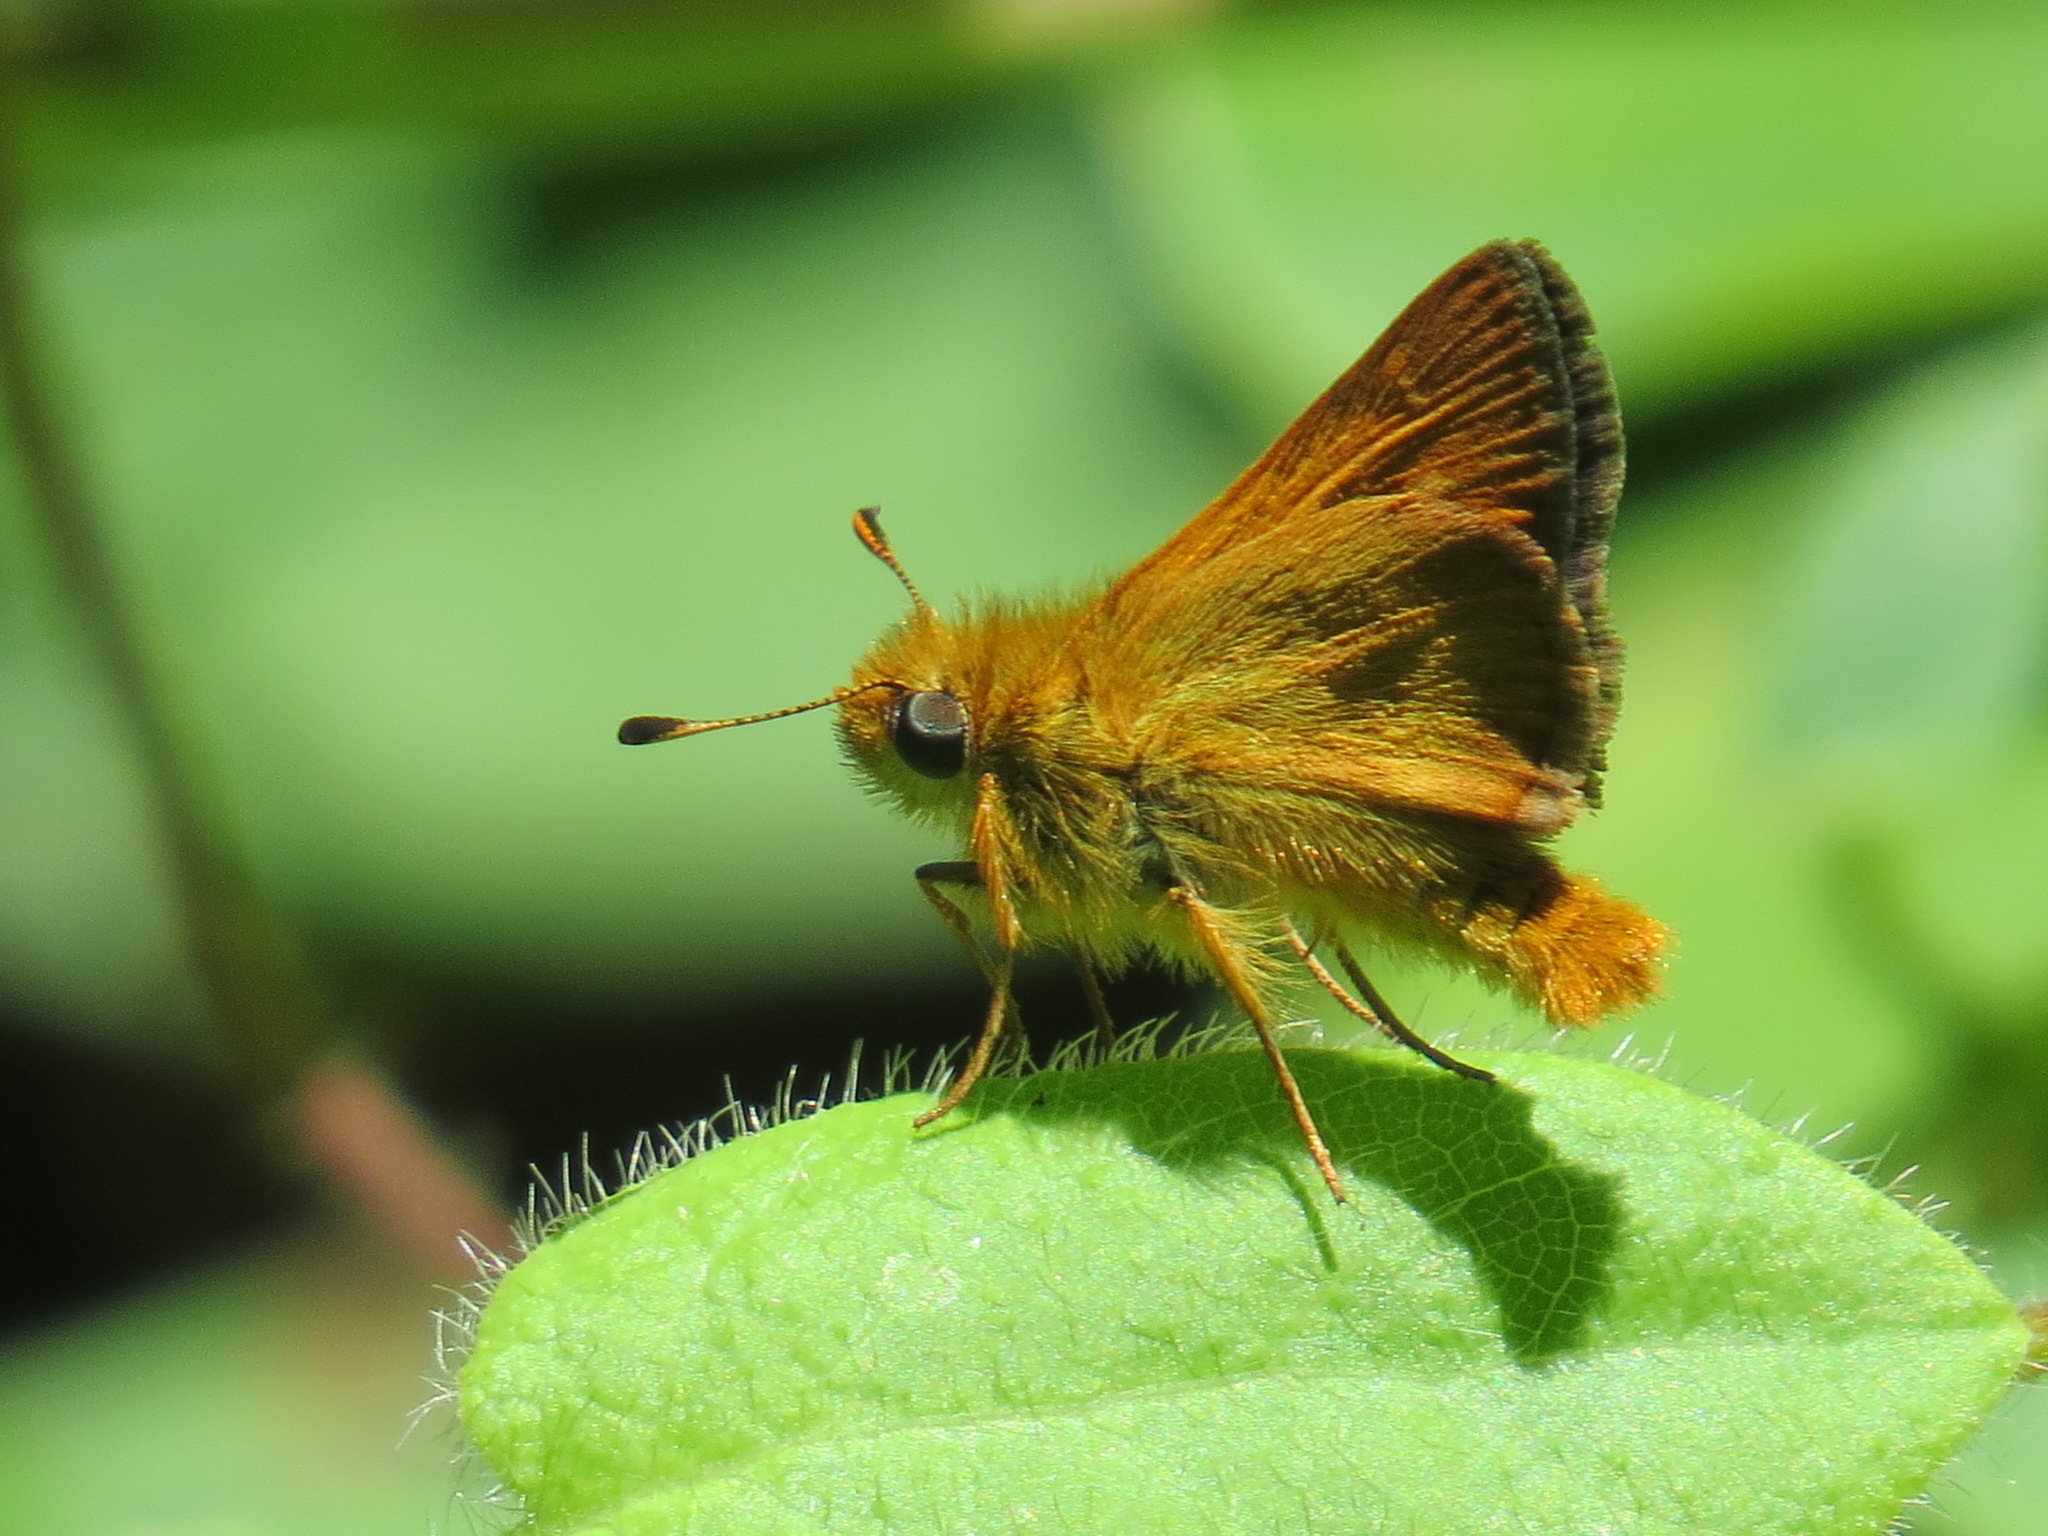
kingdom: Animalia
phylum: Arthropoda
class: Insecta
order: Lepidoptera
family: Hesperiidae
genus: Ochlodes
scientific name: Ochlodes agricola
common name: Rural skipper
